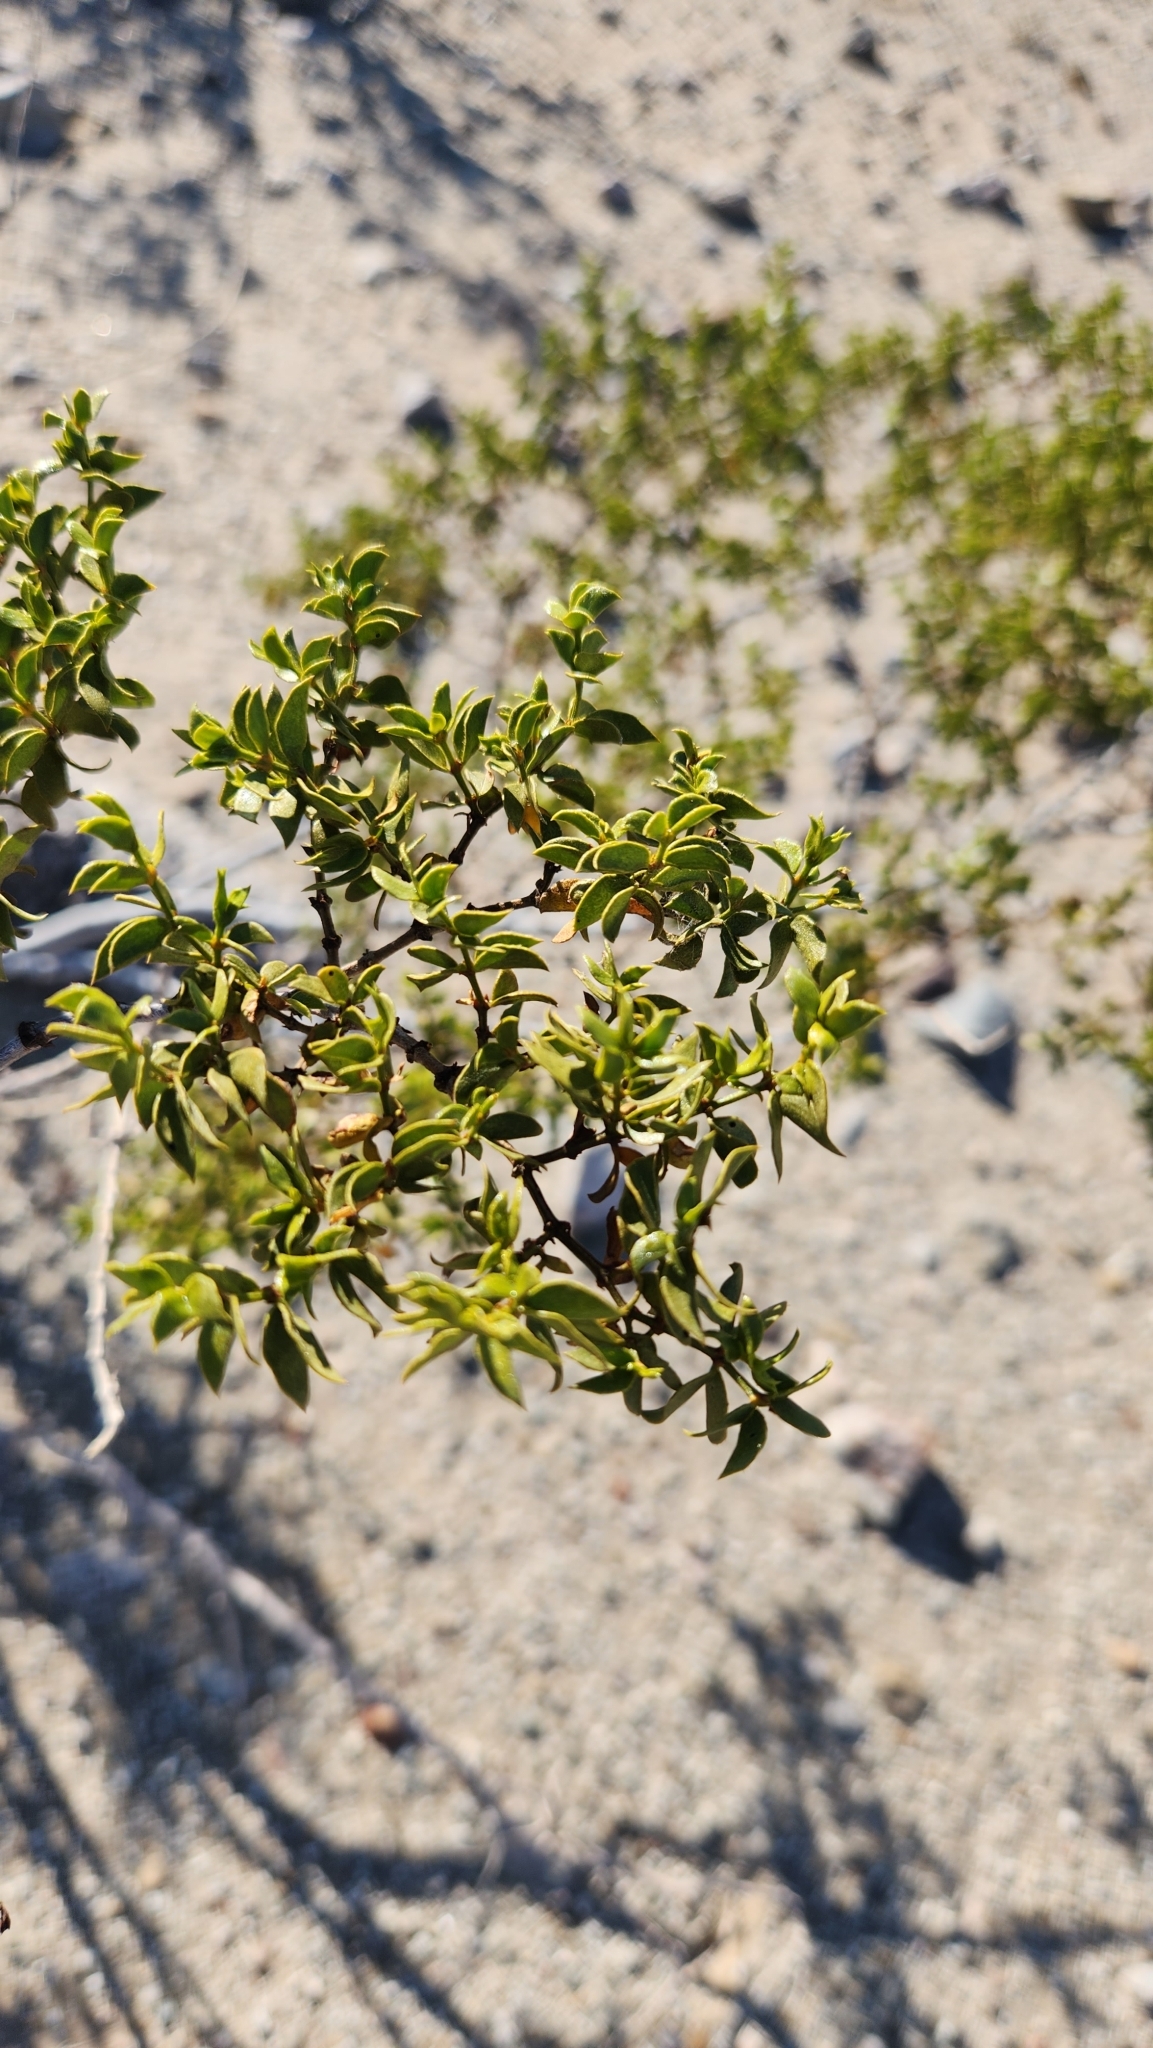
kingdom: Plantae
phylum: Tracheophyta
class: Magnoliopsida
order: Zygophyllales
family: Zygophyllaceae
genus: Larrea
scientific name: Larrea tridentata
